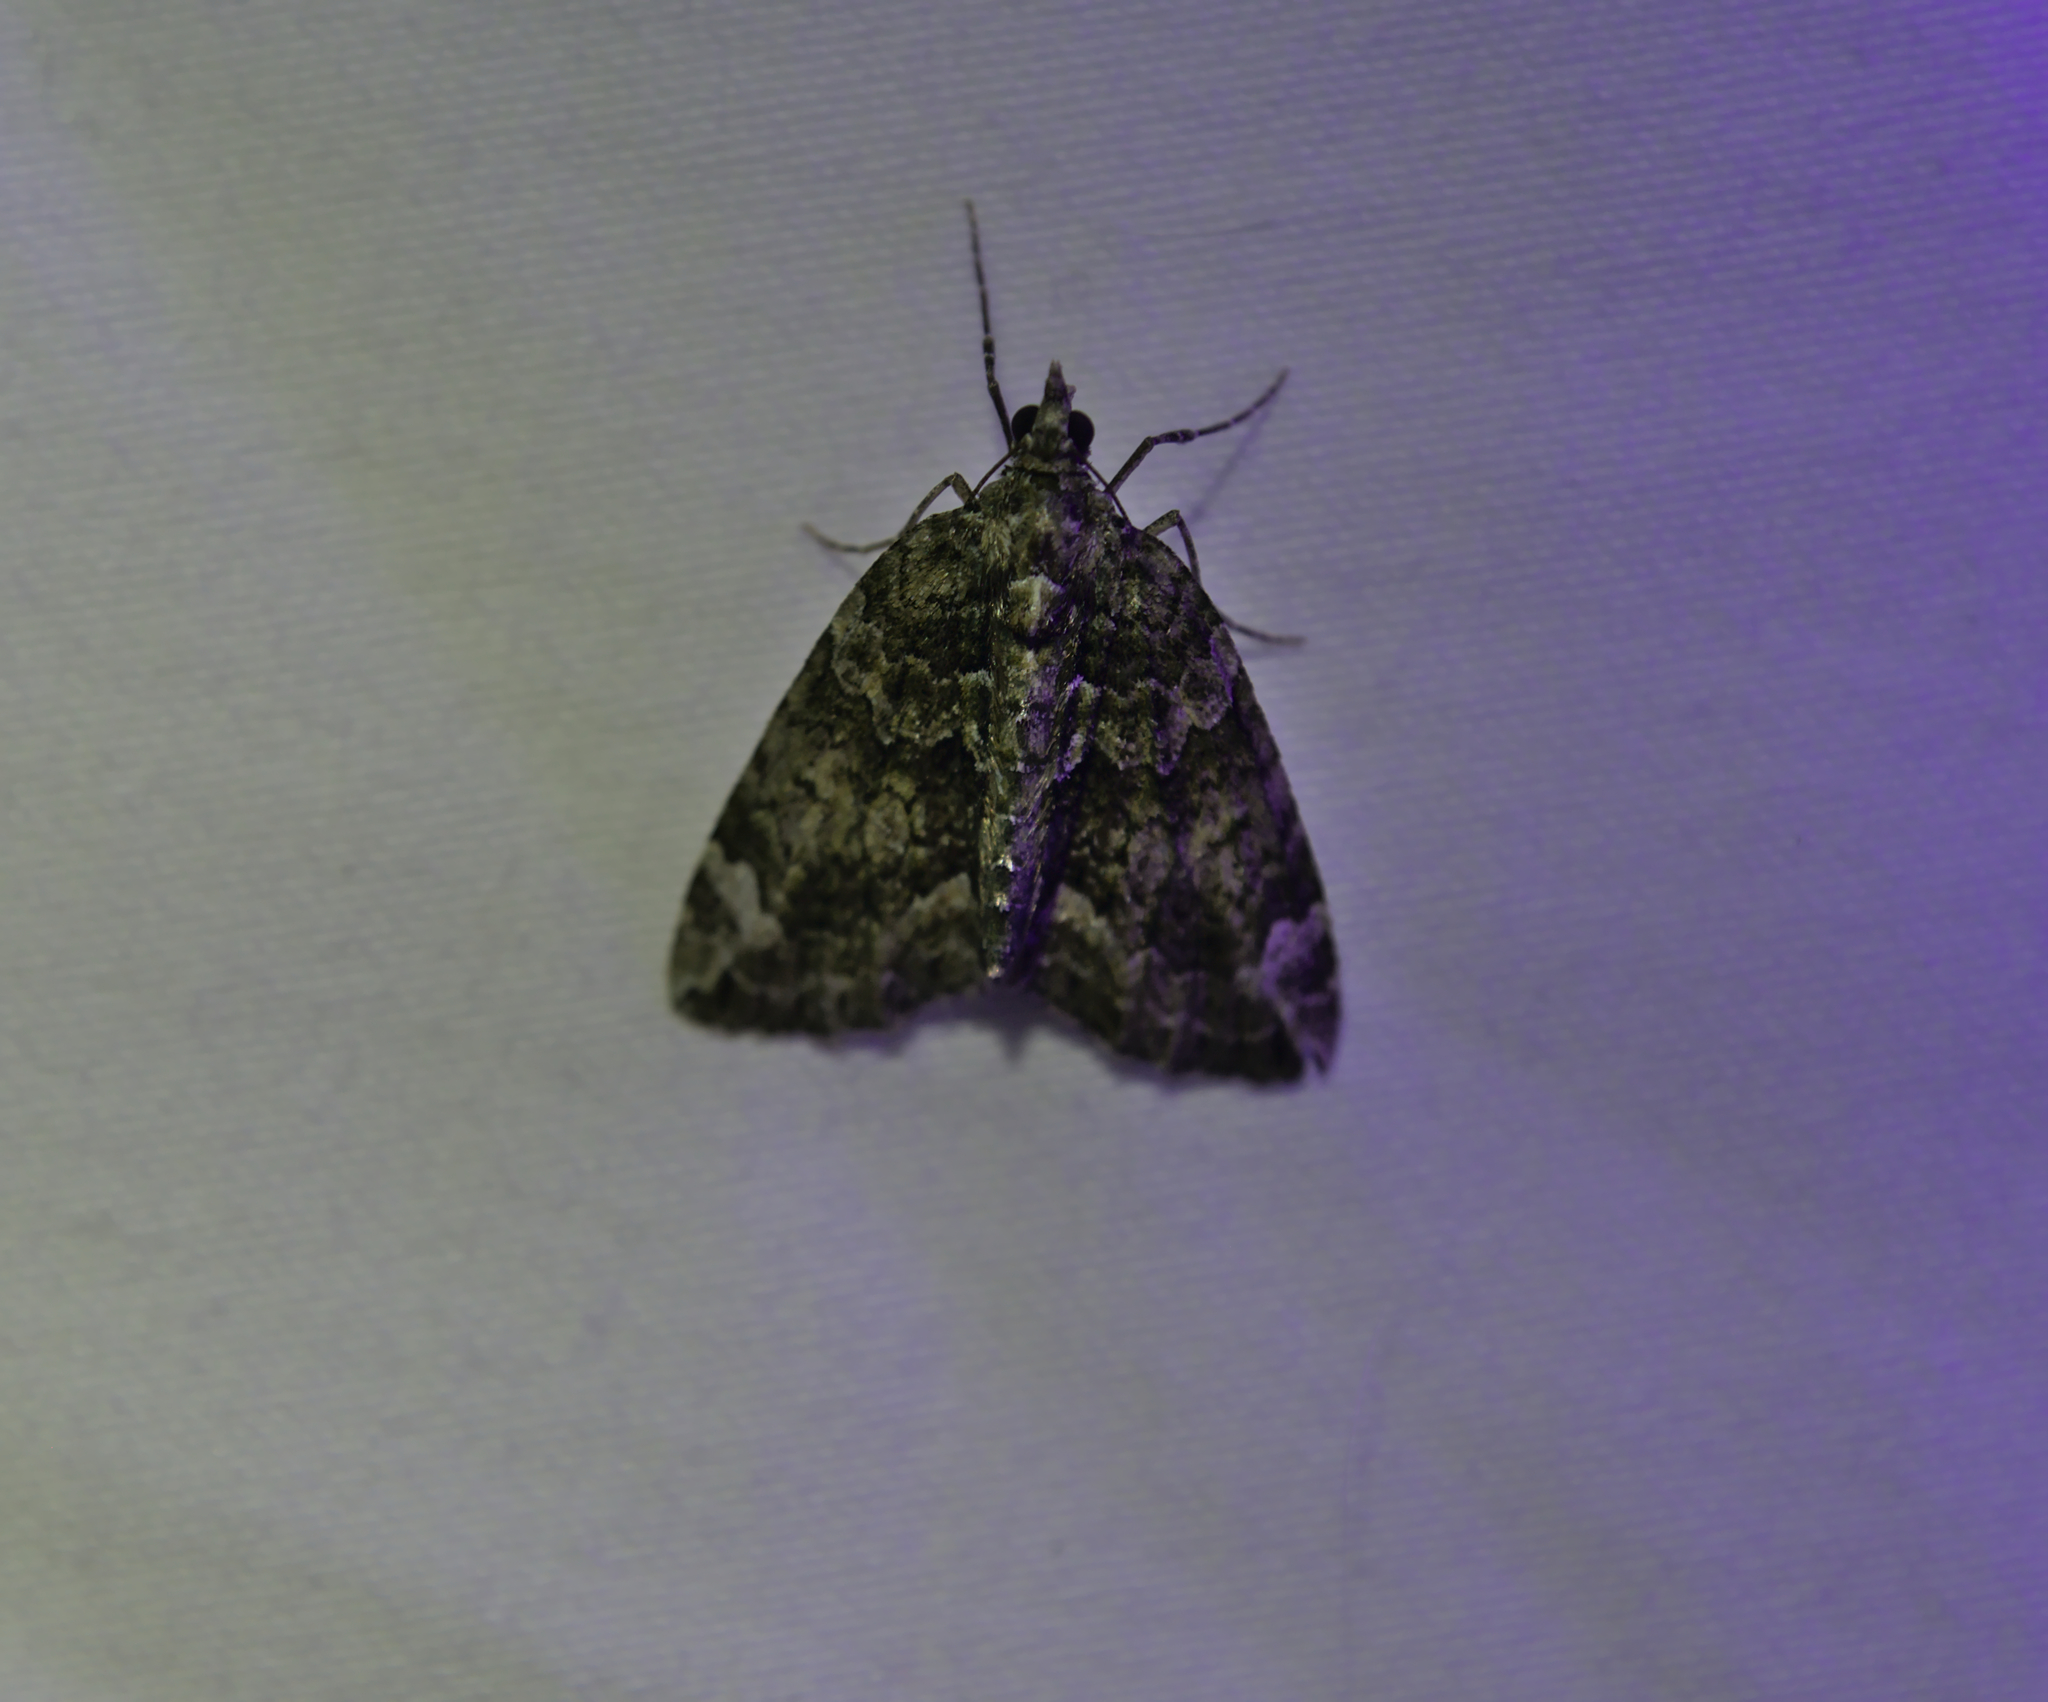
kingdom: Animalia
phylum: Arthropoda
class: Insecta
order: Lepidoptera
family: Geometridae
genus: Chloroclysta
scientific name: Chloroclysta siterata
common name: Red-green carpet
